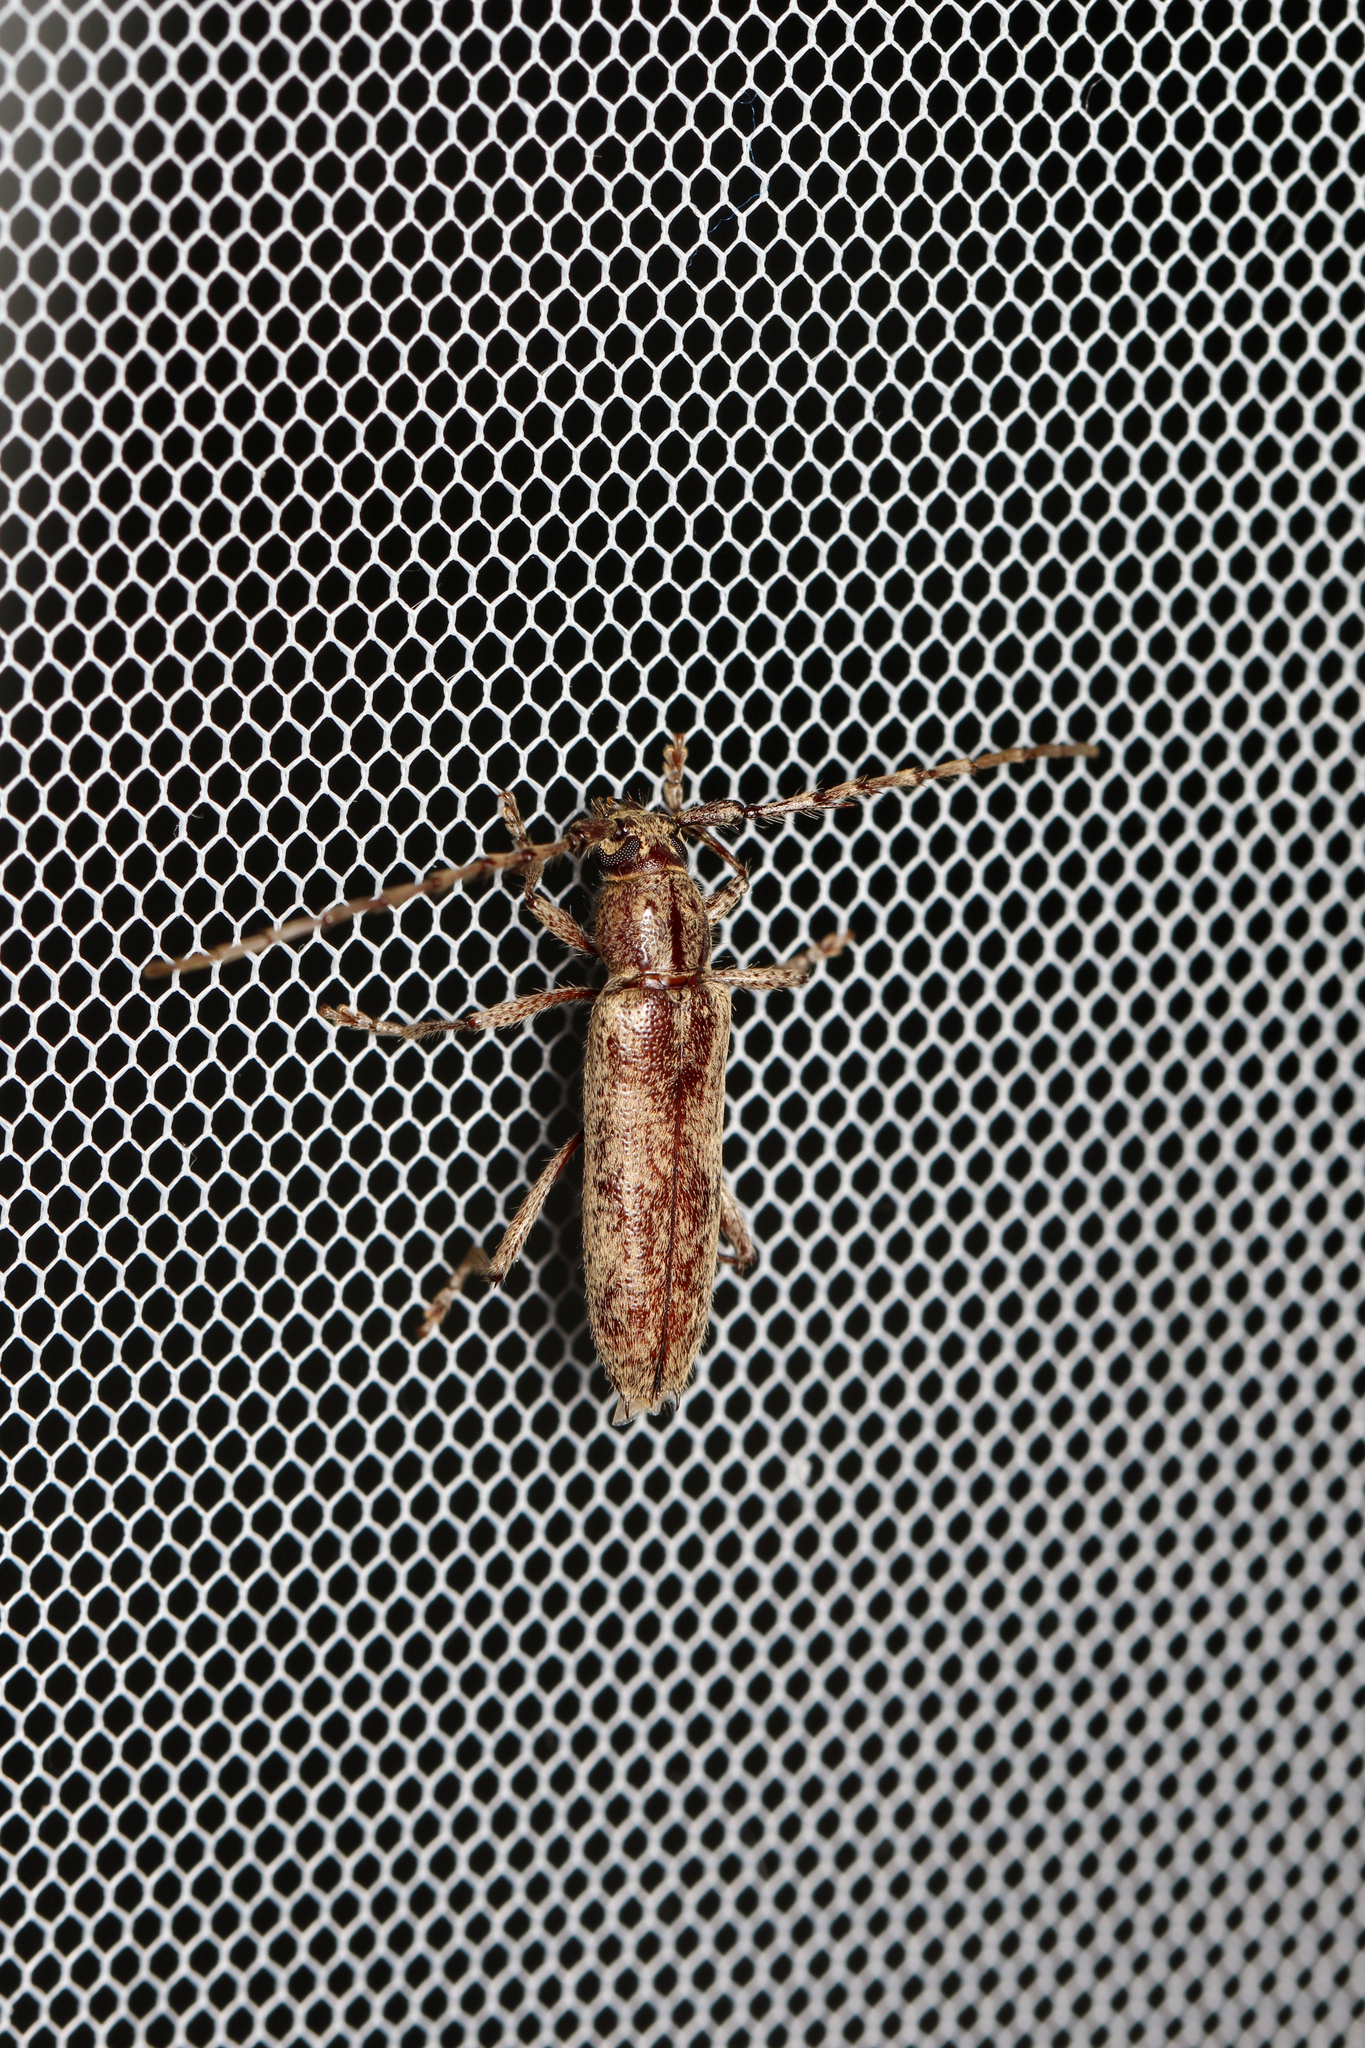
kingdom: Animalia
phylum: Arthropoda
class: Insecta
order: Coleoptera
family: Cerambycidae
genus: Elaphidion
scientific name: Elaphidion mucronatum
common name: Spined oak borer
